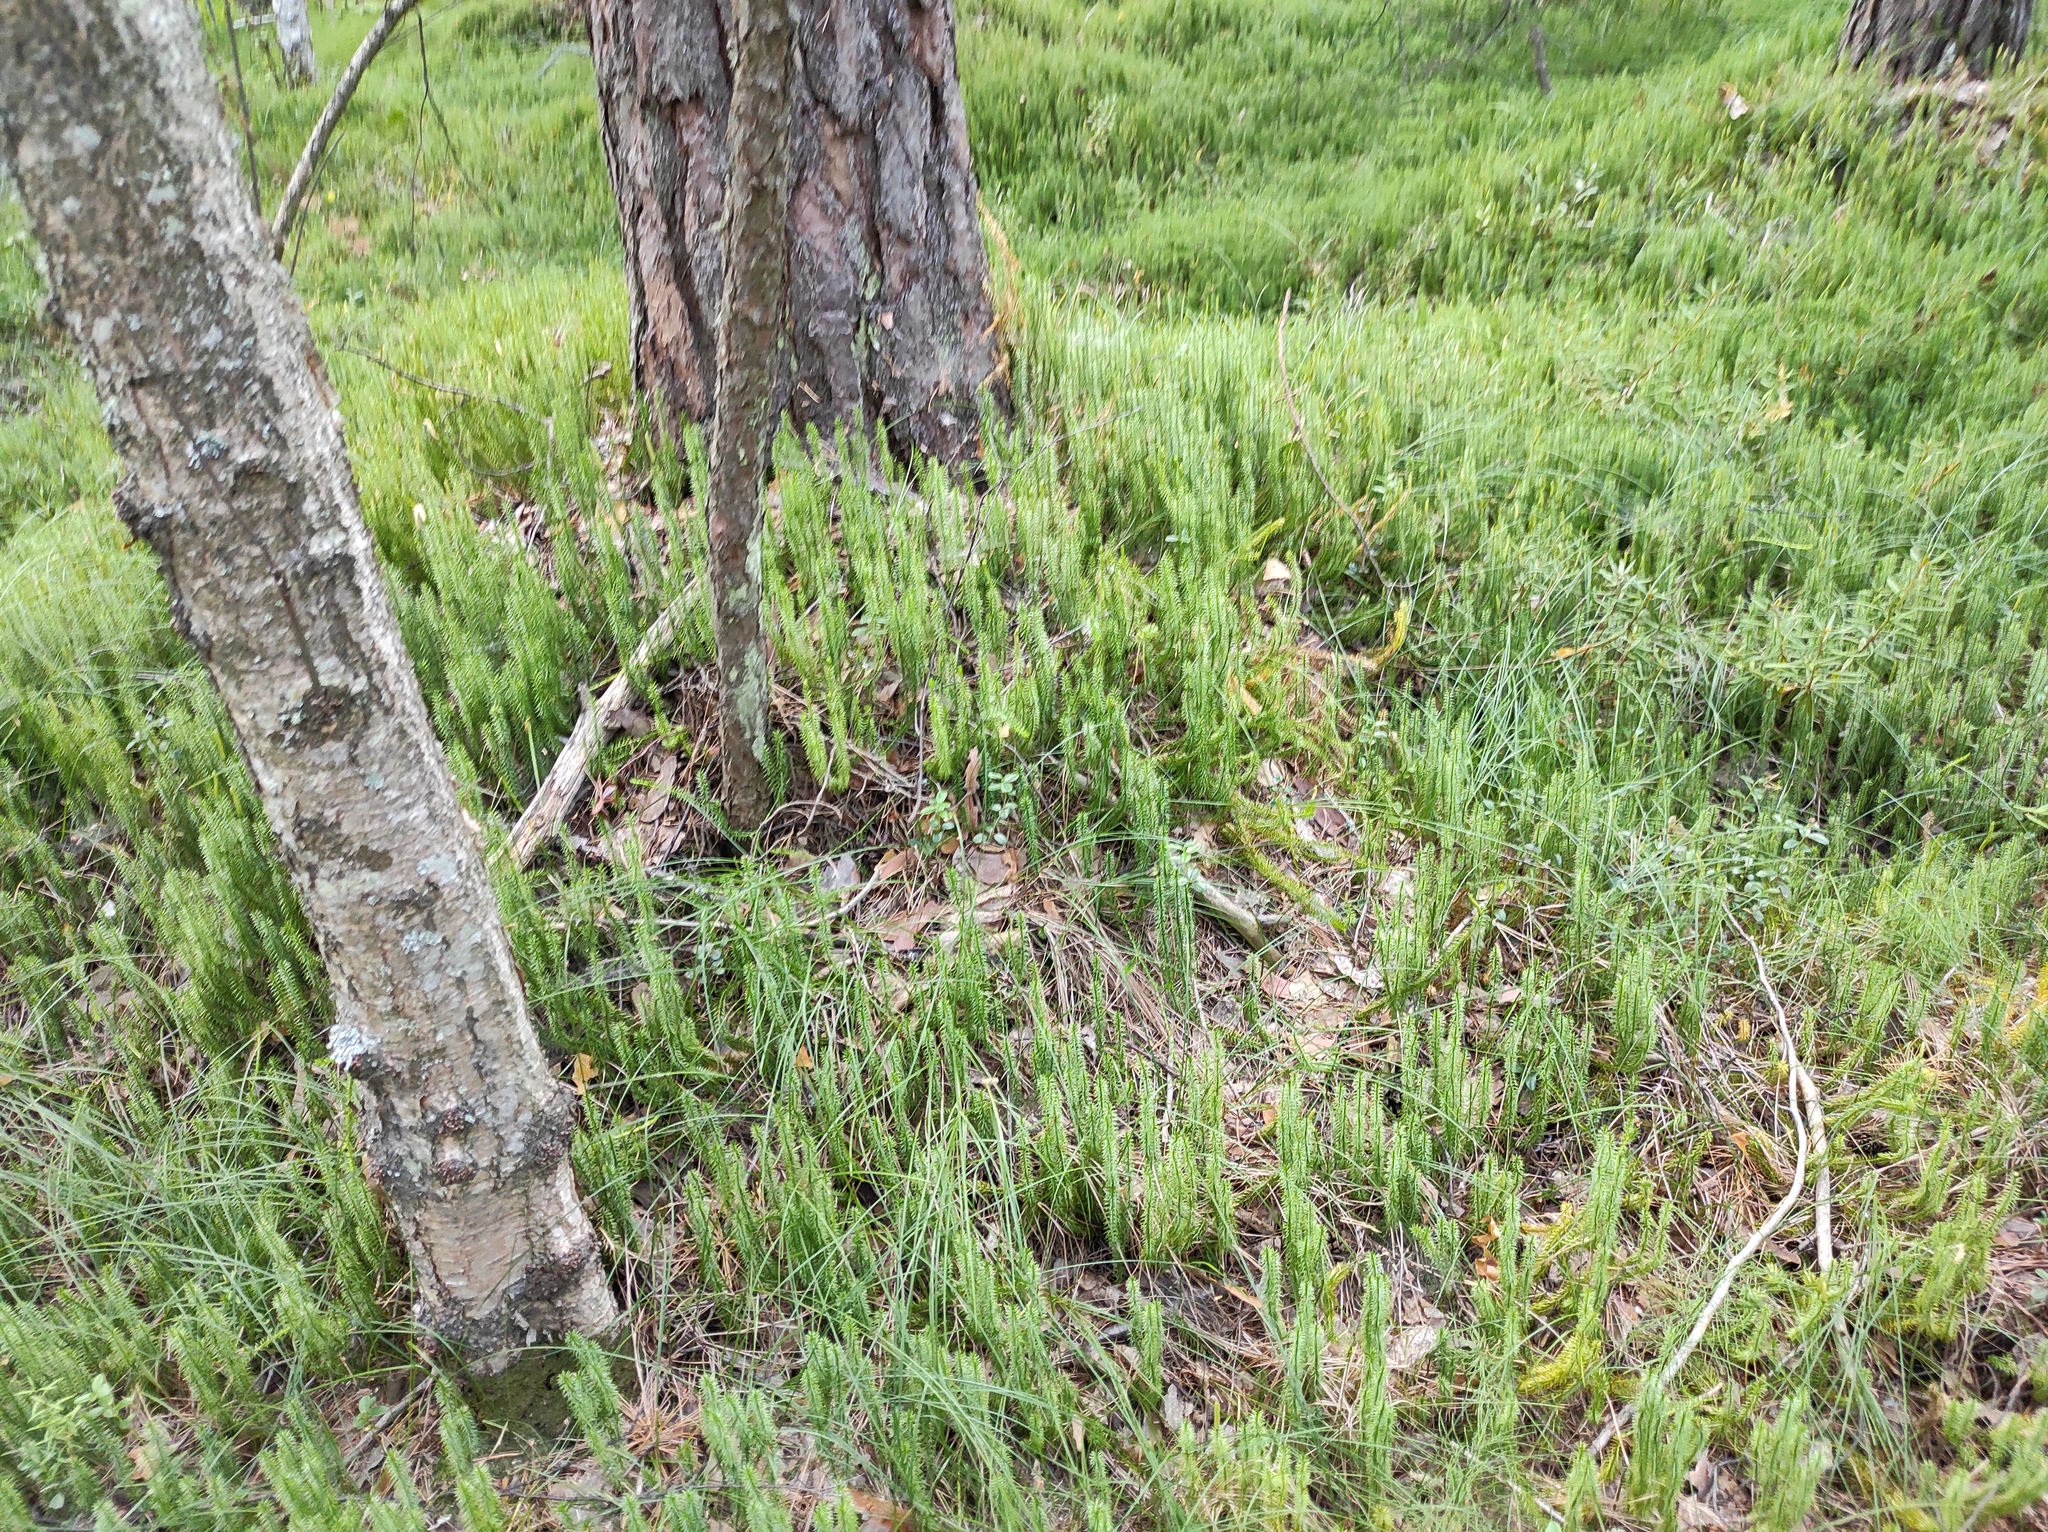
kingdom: Plantae
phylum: Tracheophyta
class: Lycopodiopsida
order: Lycopodiales
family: Lycopodiaceae
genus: Spinulum
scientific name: Spinulum annotinum
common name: Interrupted club-moss
